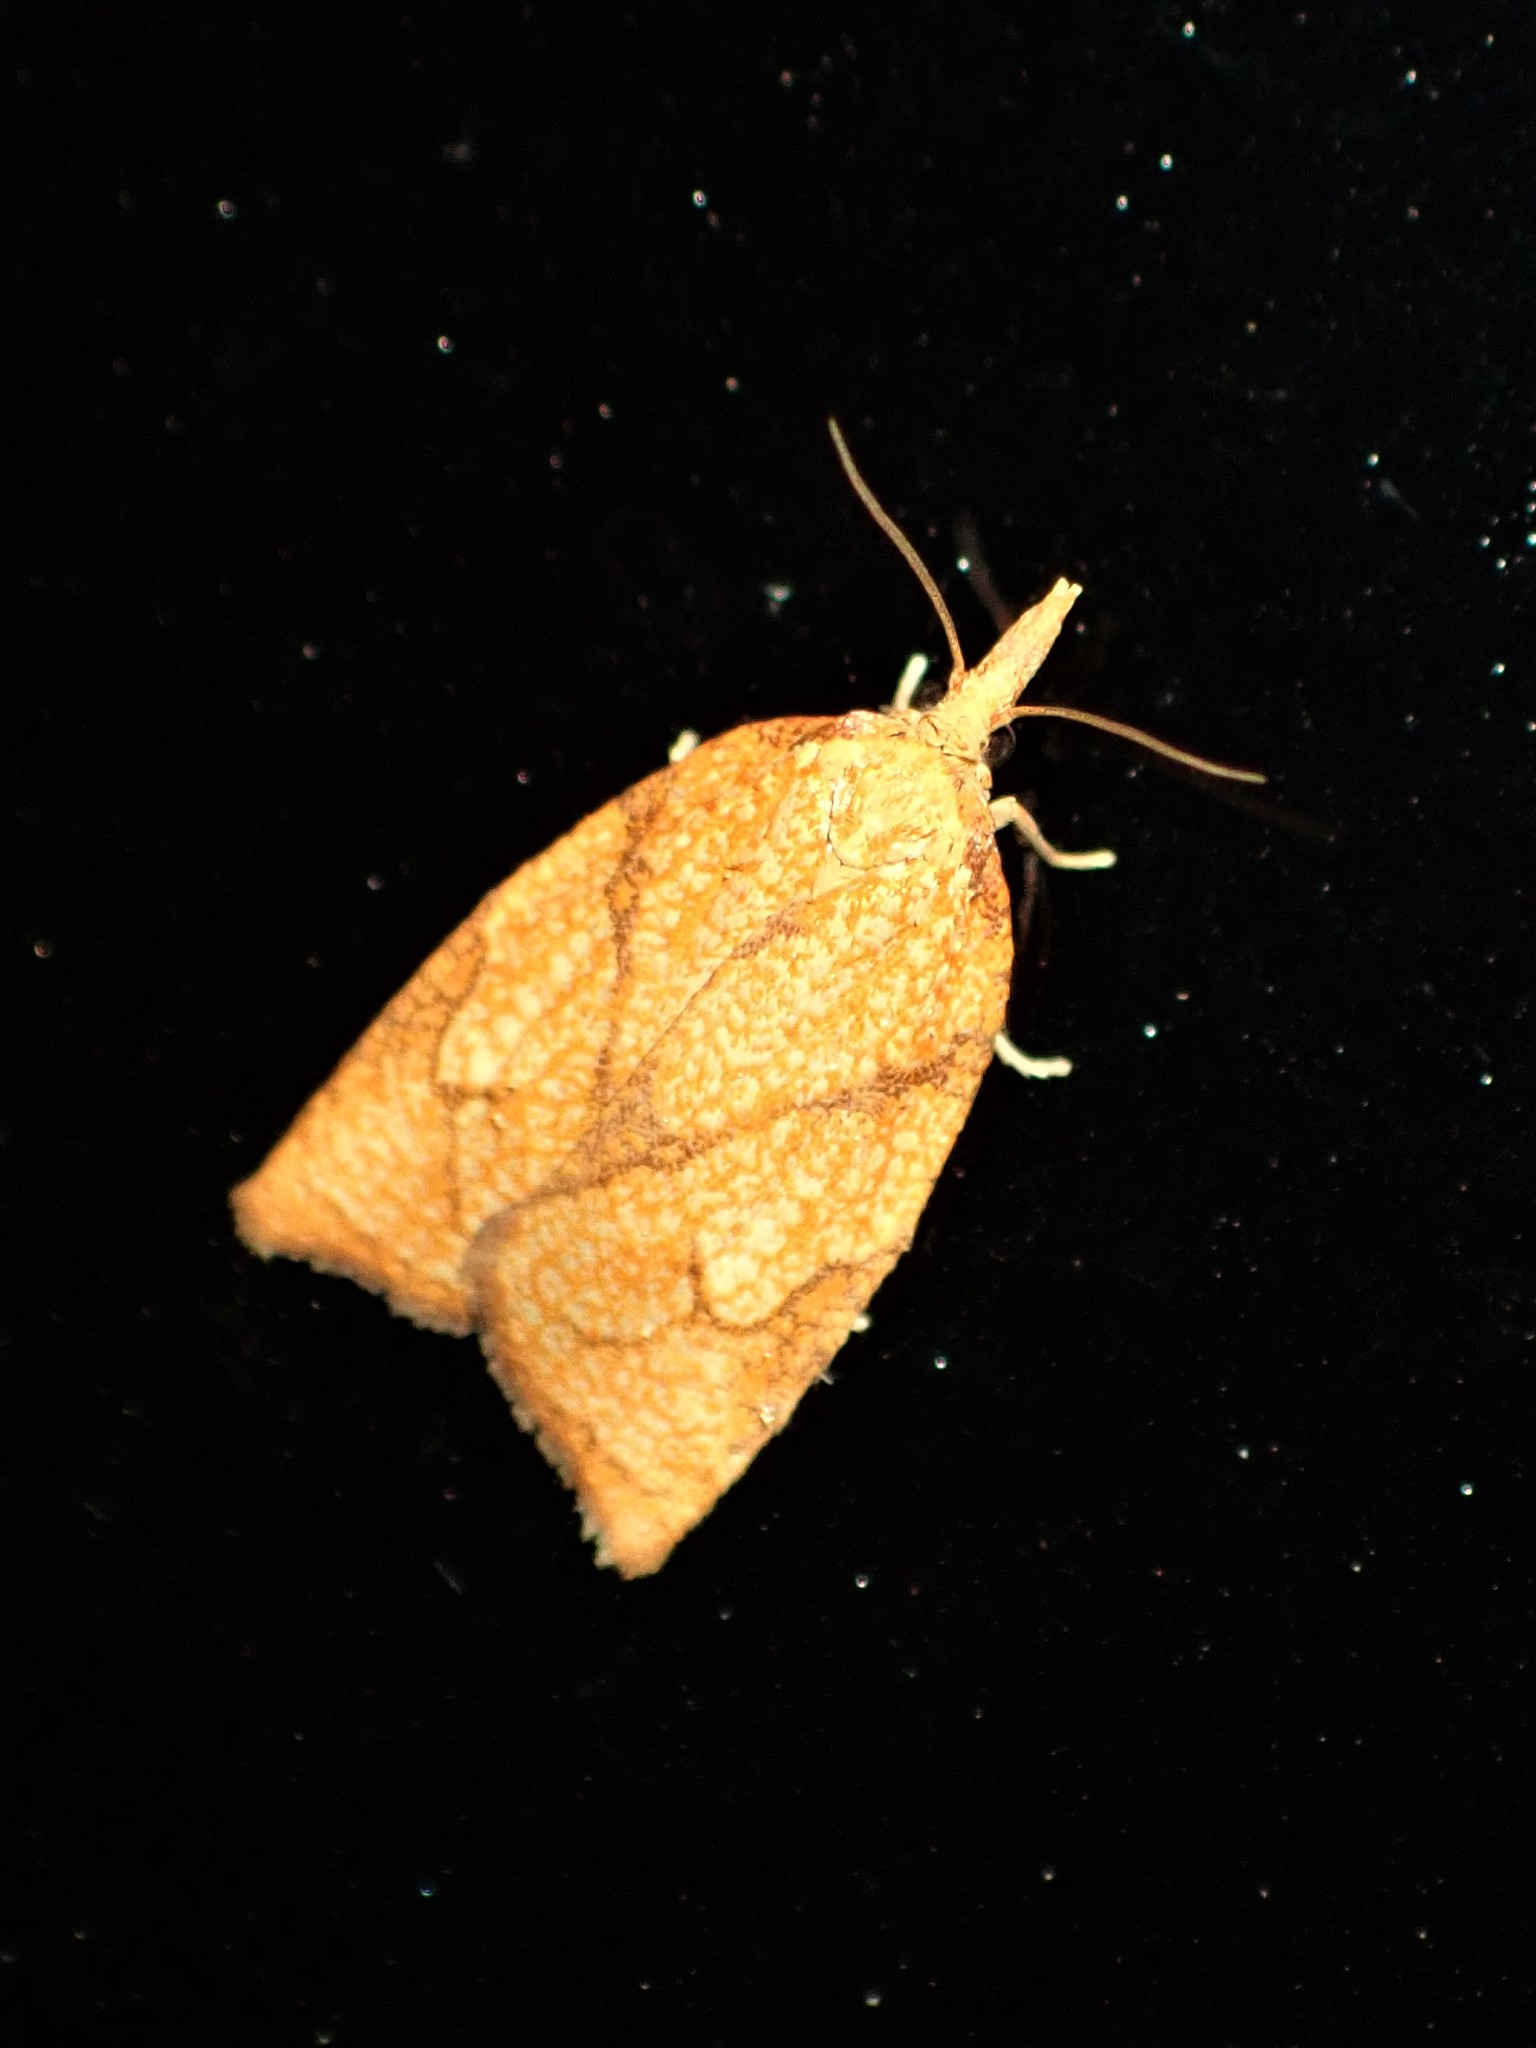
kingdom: Animalia
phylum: Arthropoda
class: Insecta
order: Lepidoptera
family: Tortricidae
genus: Cenopis
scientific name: Cenopis reticulatana
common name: Reticulated fruitworm moth
